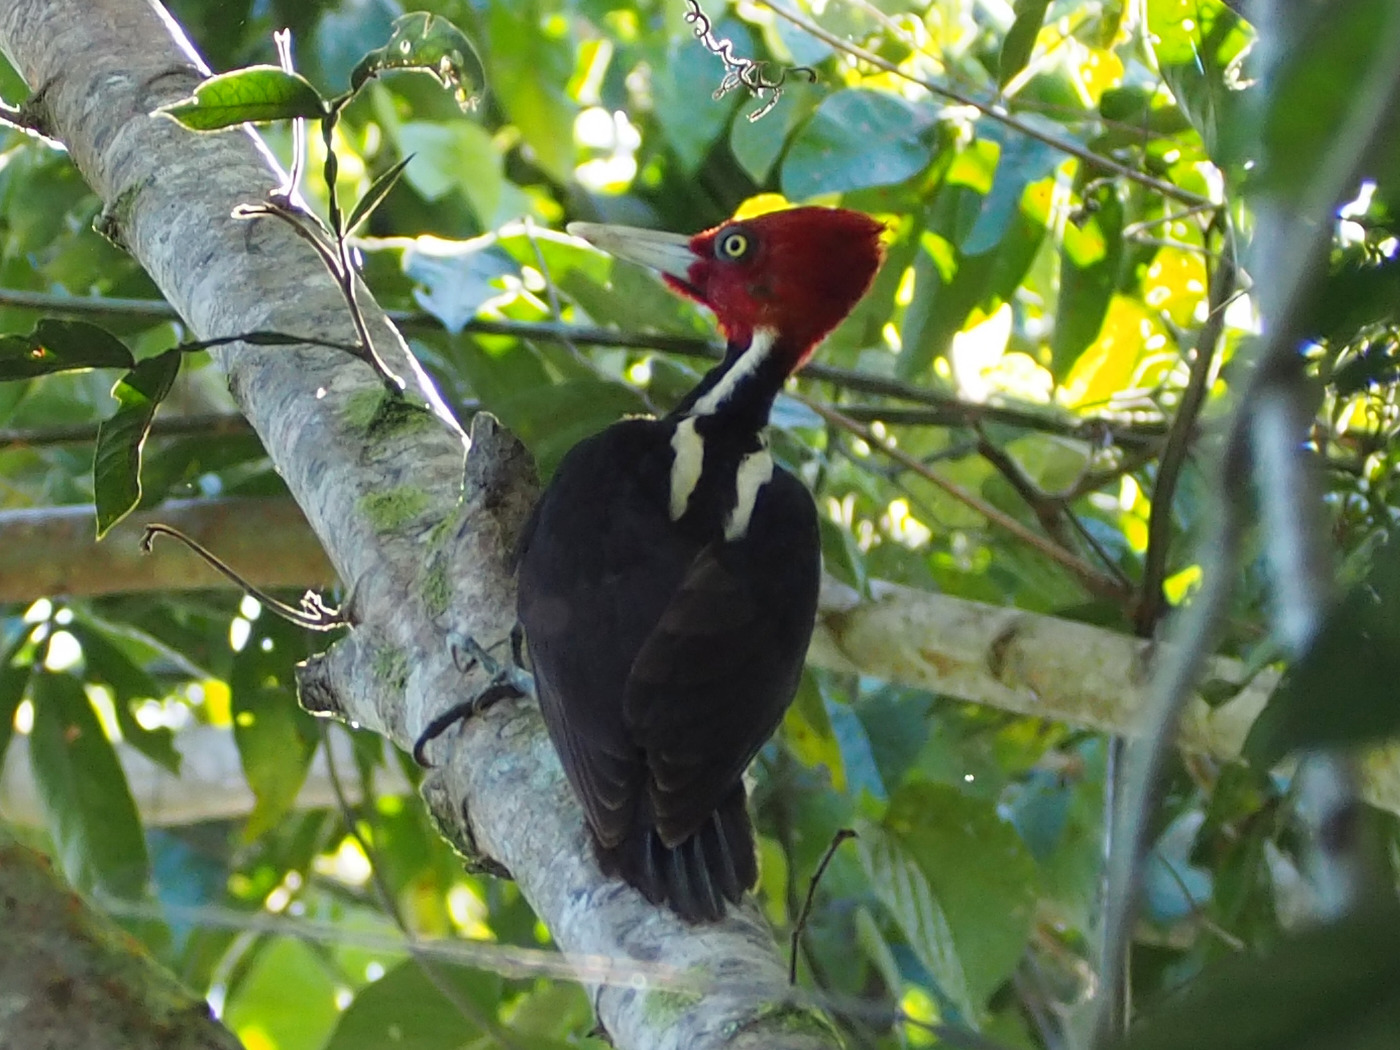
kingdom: Animalia
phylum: Chordata
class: Aves
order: Piciformes
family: Picidae
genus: Campephilus
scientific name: Campephilus guatemalensis
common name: Pale-billed woodpecker
